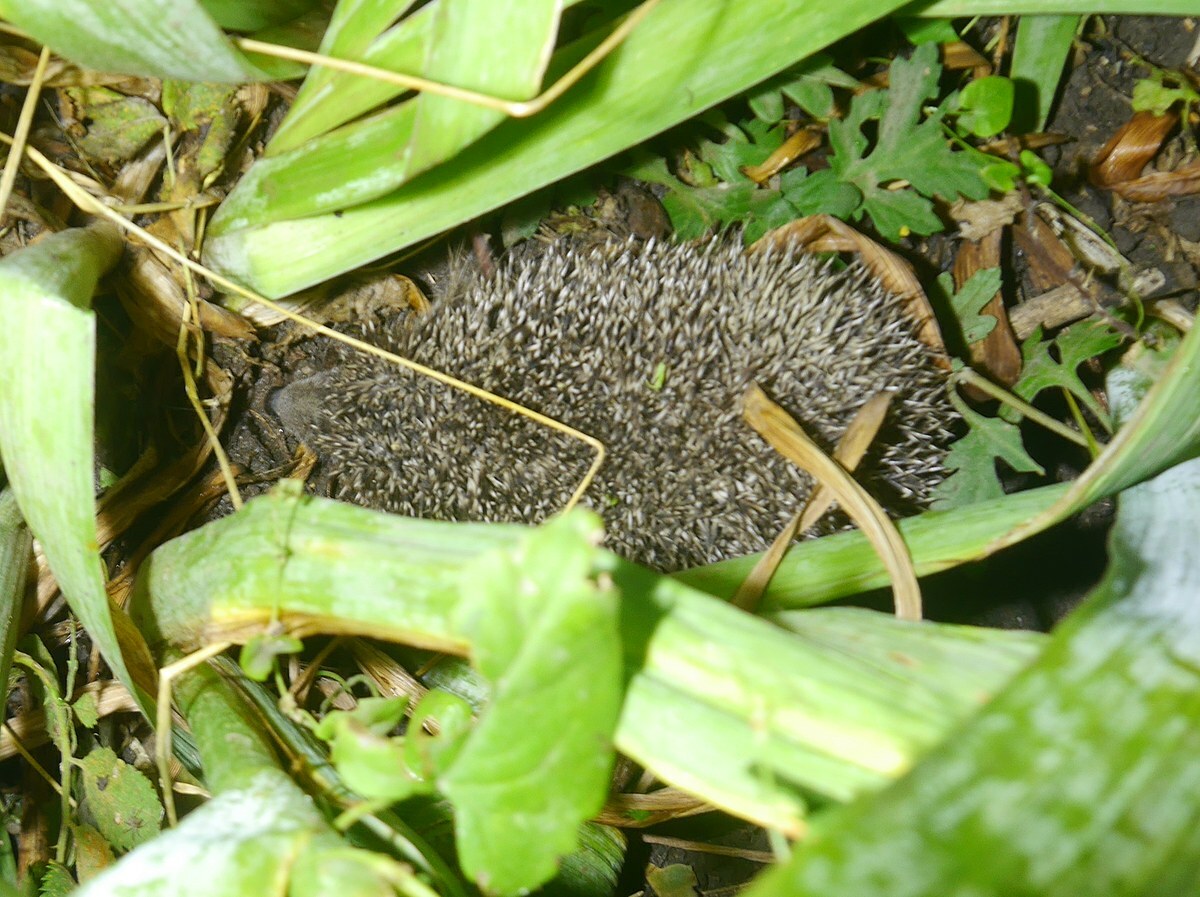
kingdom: Animalia
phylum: Chordata
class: Mammalia
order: Erinaceomorpha
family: Erinaceidae
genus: Erinaceus
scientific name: Erinaceus roumanicus
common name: Northern white-breasted hedgehog
